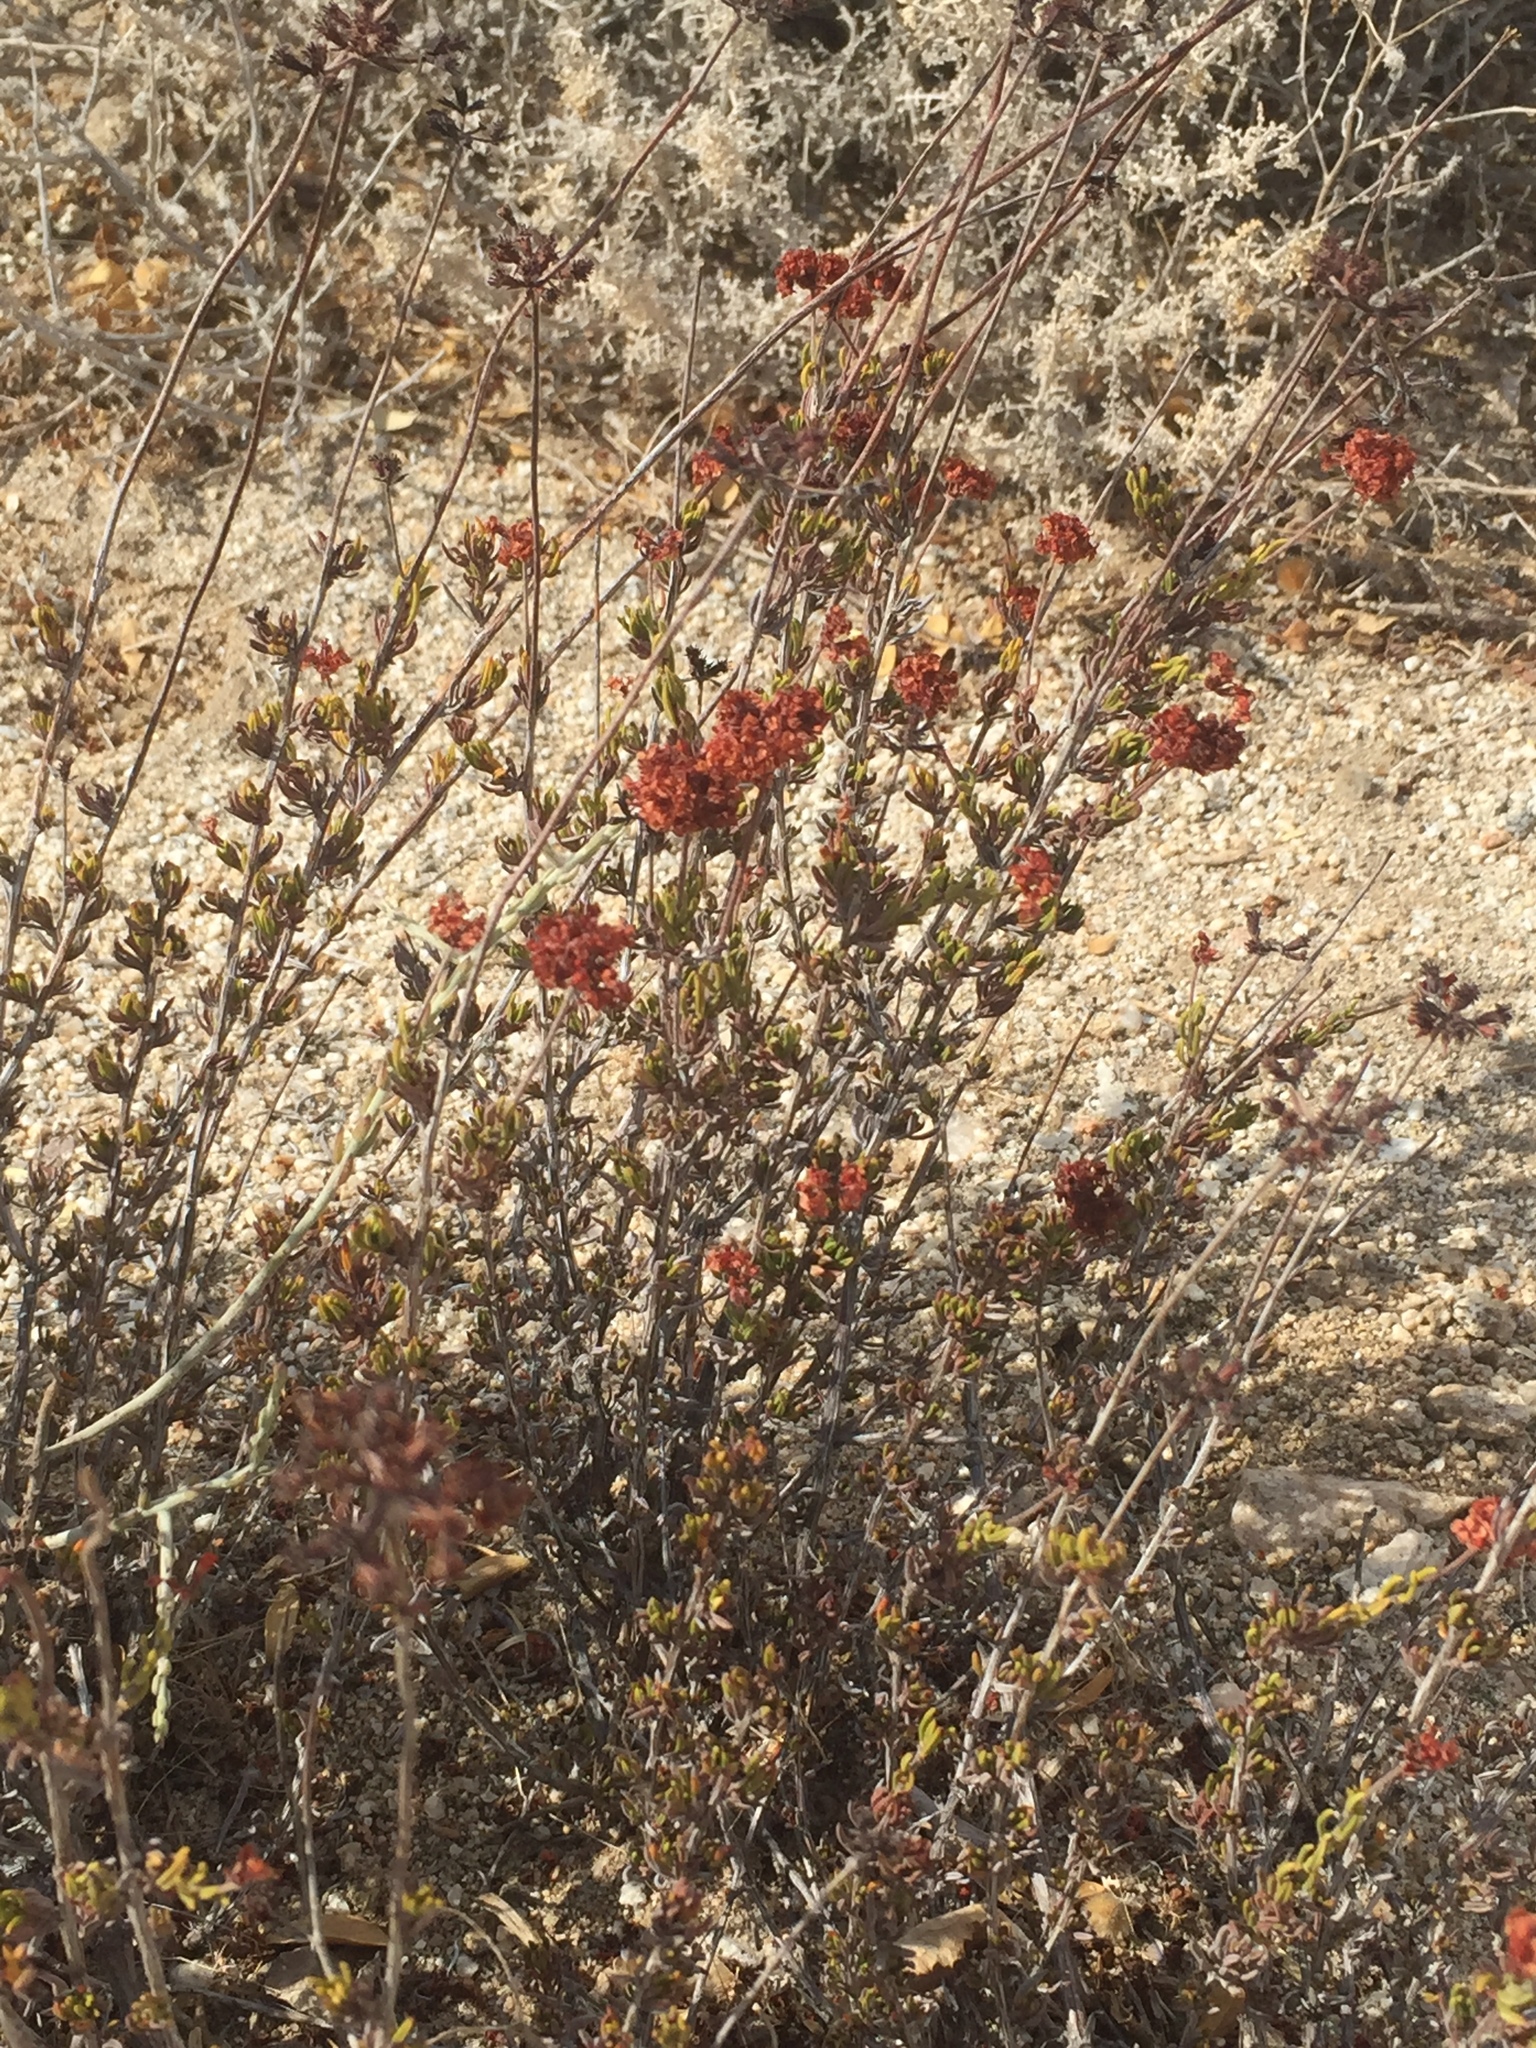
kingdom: Plantae
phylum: Tracheophyta
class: Magnoliopsida
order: Caryophyllales
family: Polygonaceae
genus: Eriogonum
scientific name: Eriogonum fasciculatum
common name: California wild buckwheat
